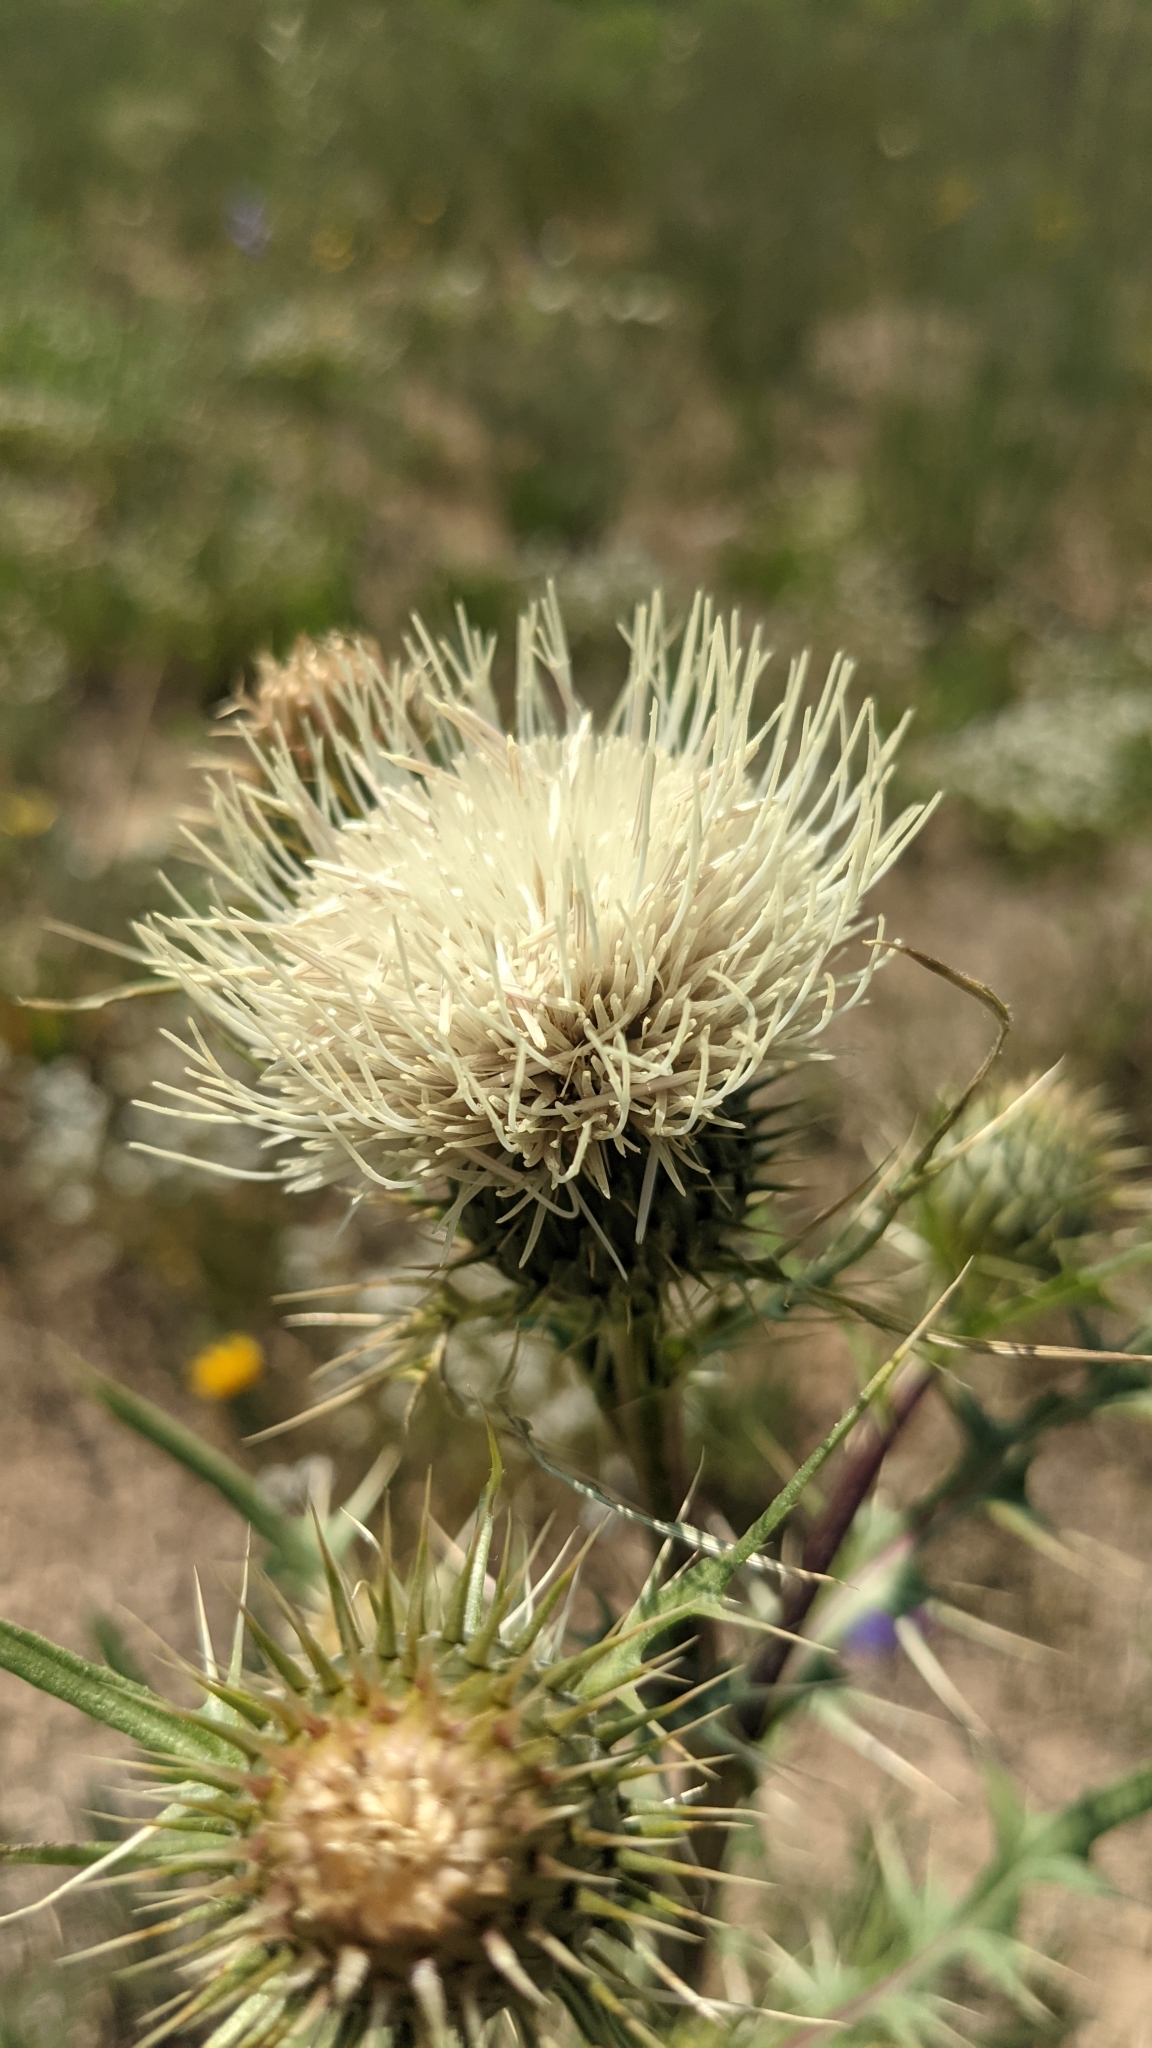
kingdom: Plantae
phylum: Tracheophyta
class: Magnoliopsida
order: Asterales
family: Asteraceae
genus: Cirsium
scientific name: Cirsium clavatum
